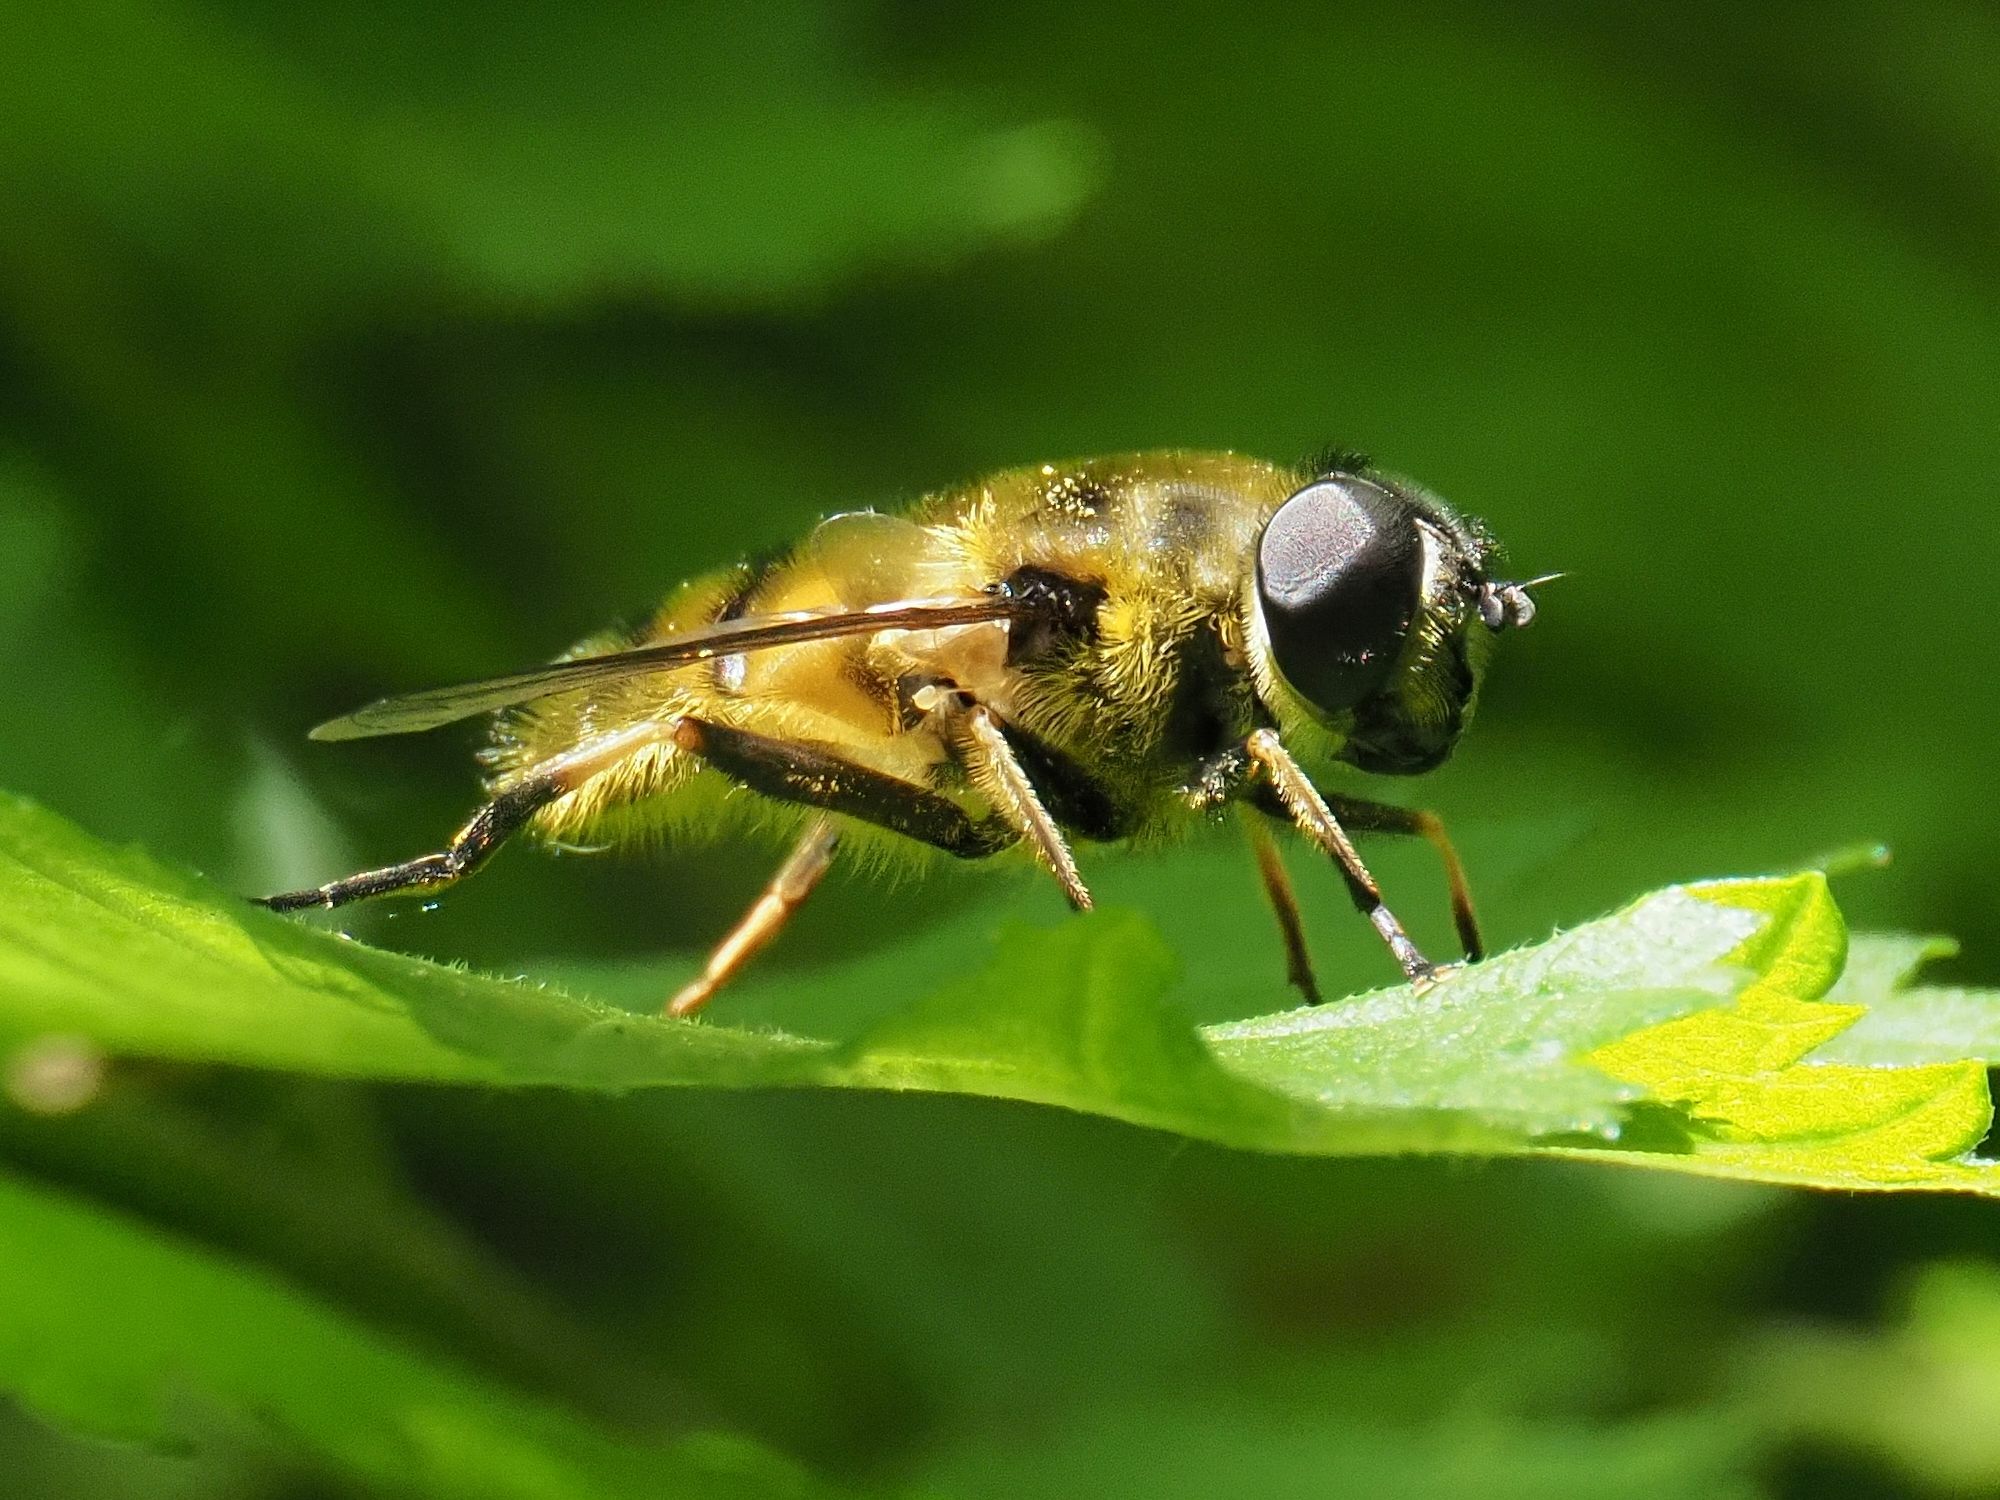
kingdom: Animalia
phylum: Arthropoda
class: Insecta
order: Diptera
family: Syrphidae
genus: Myathropa
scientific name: Myathropa florea
